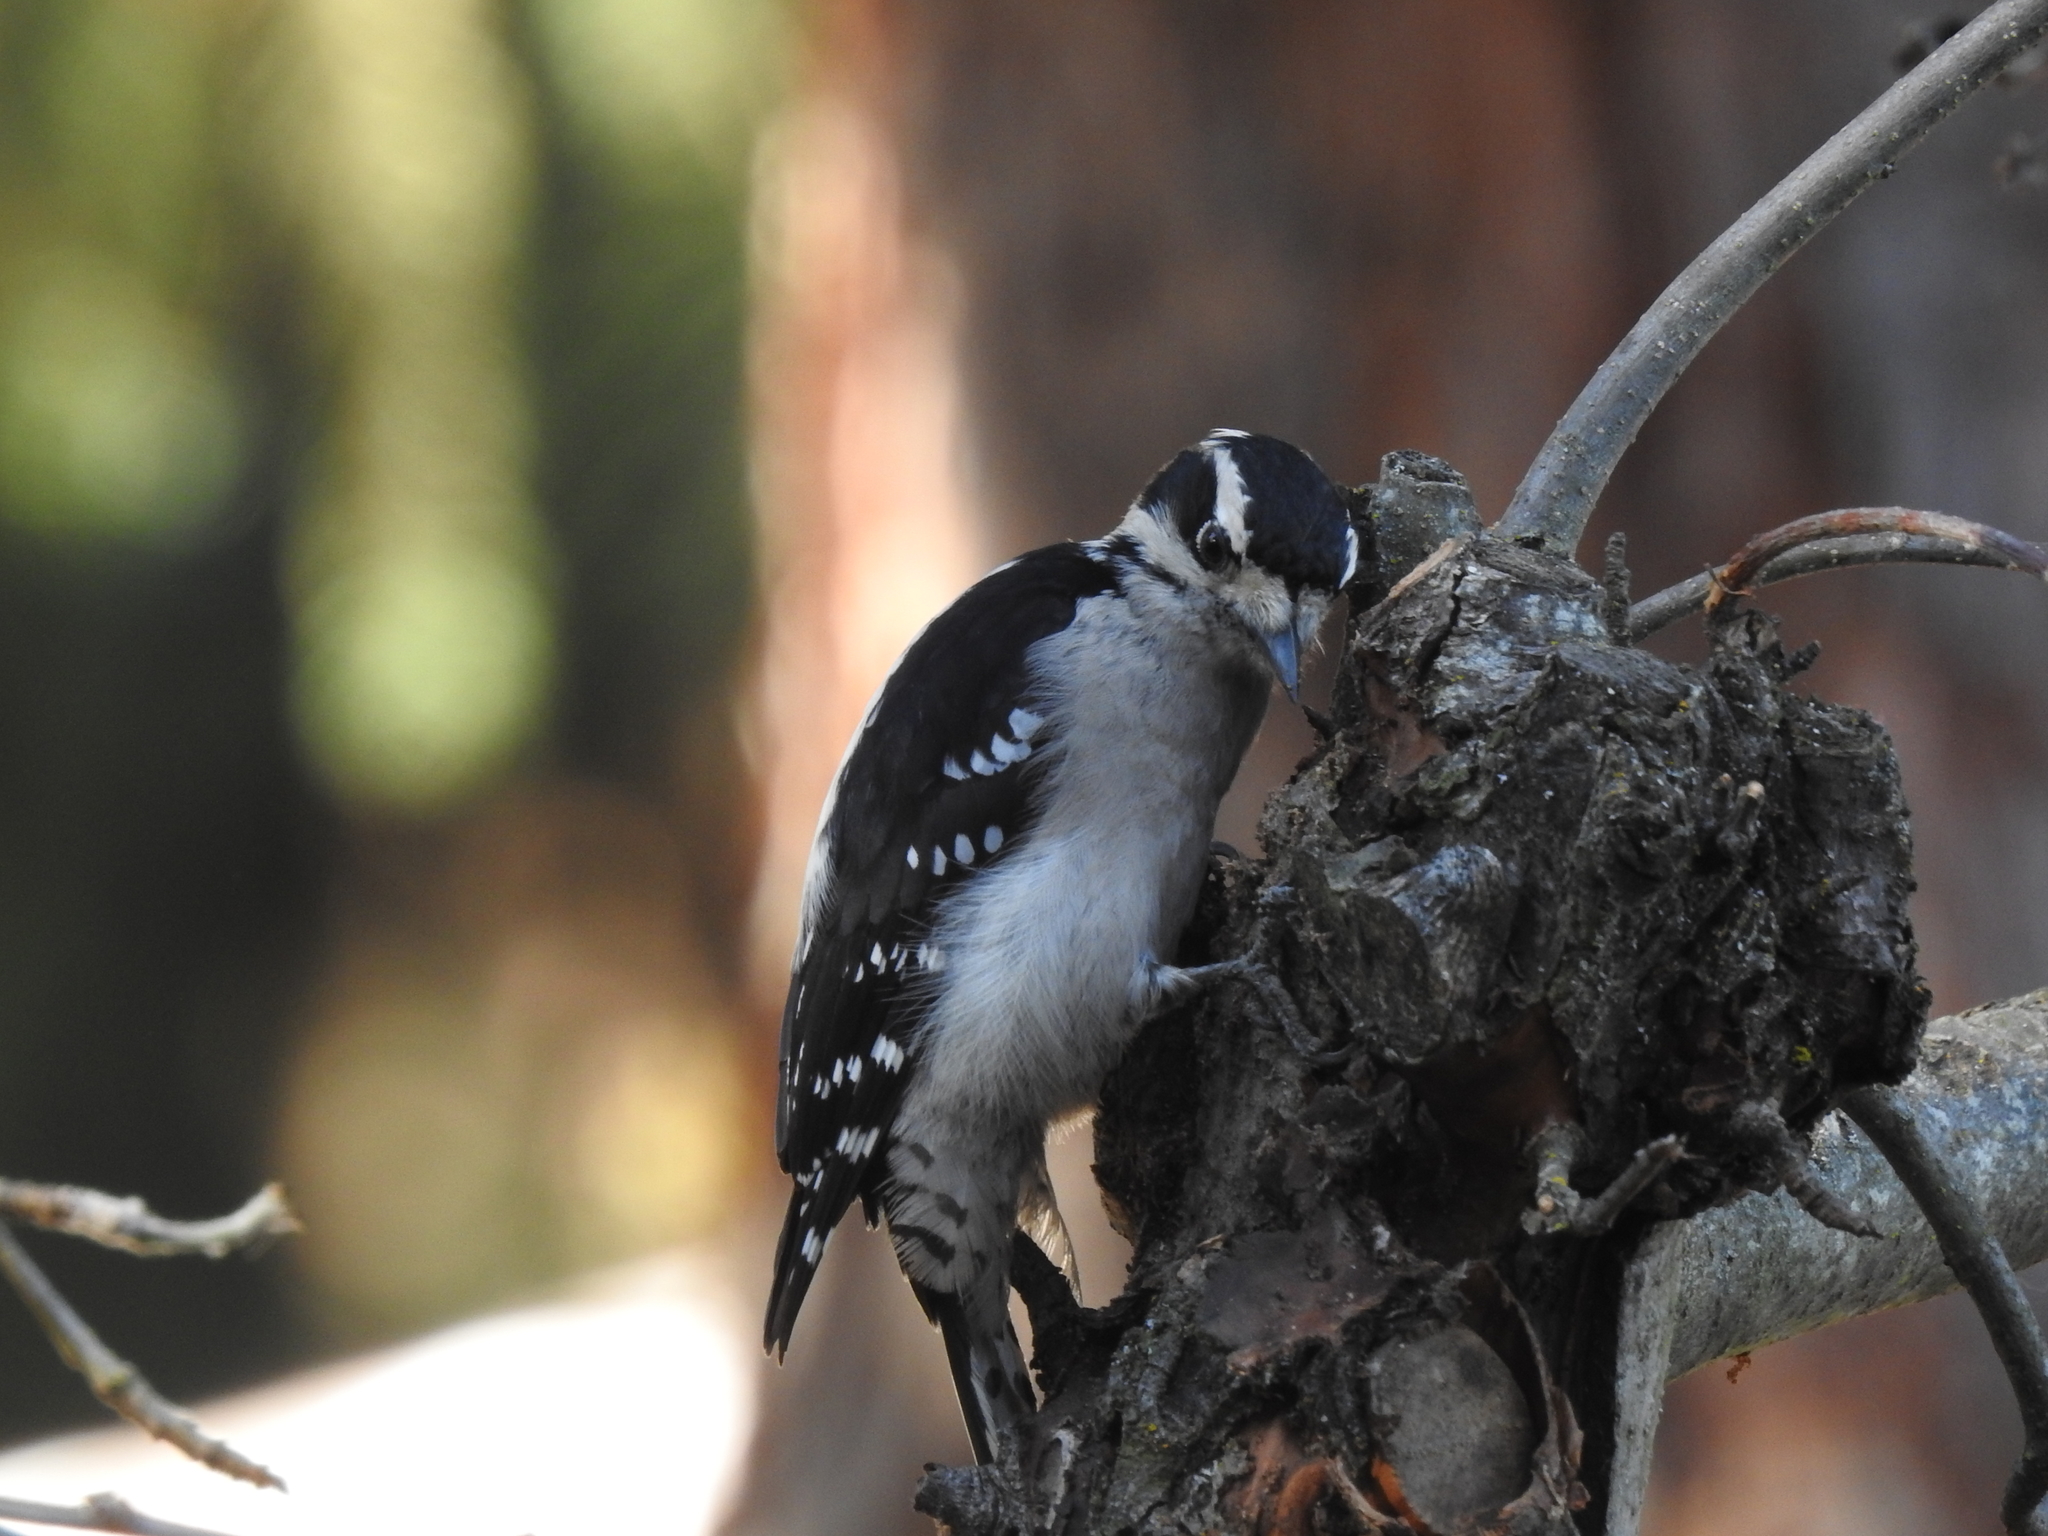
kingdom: Animalia
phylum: Chordata
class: Aves
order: Piciformes
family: Picidae
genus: Dryobates
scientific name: Dryobates pubescens
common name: Downy woodpecker
